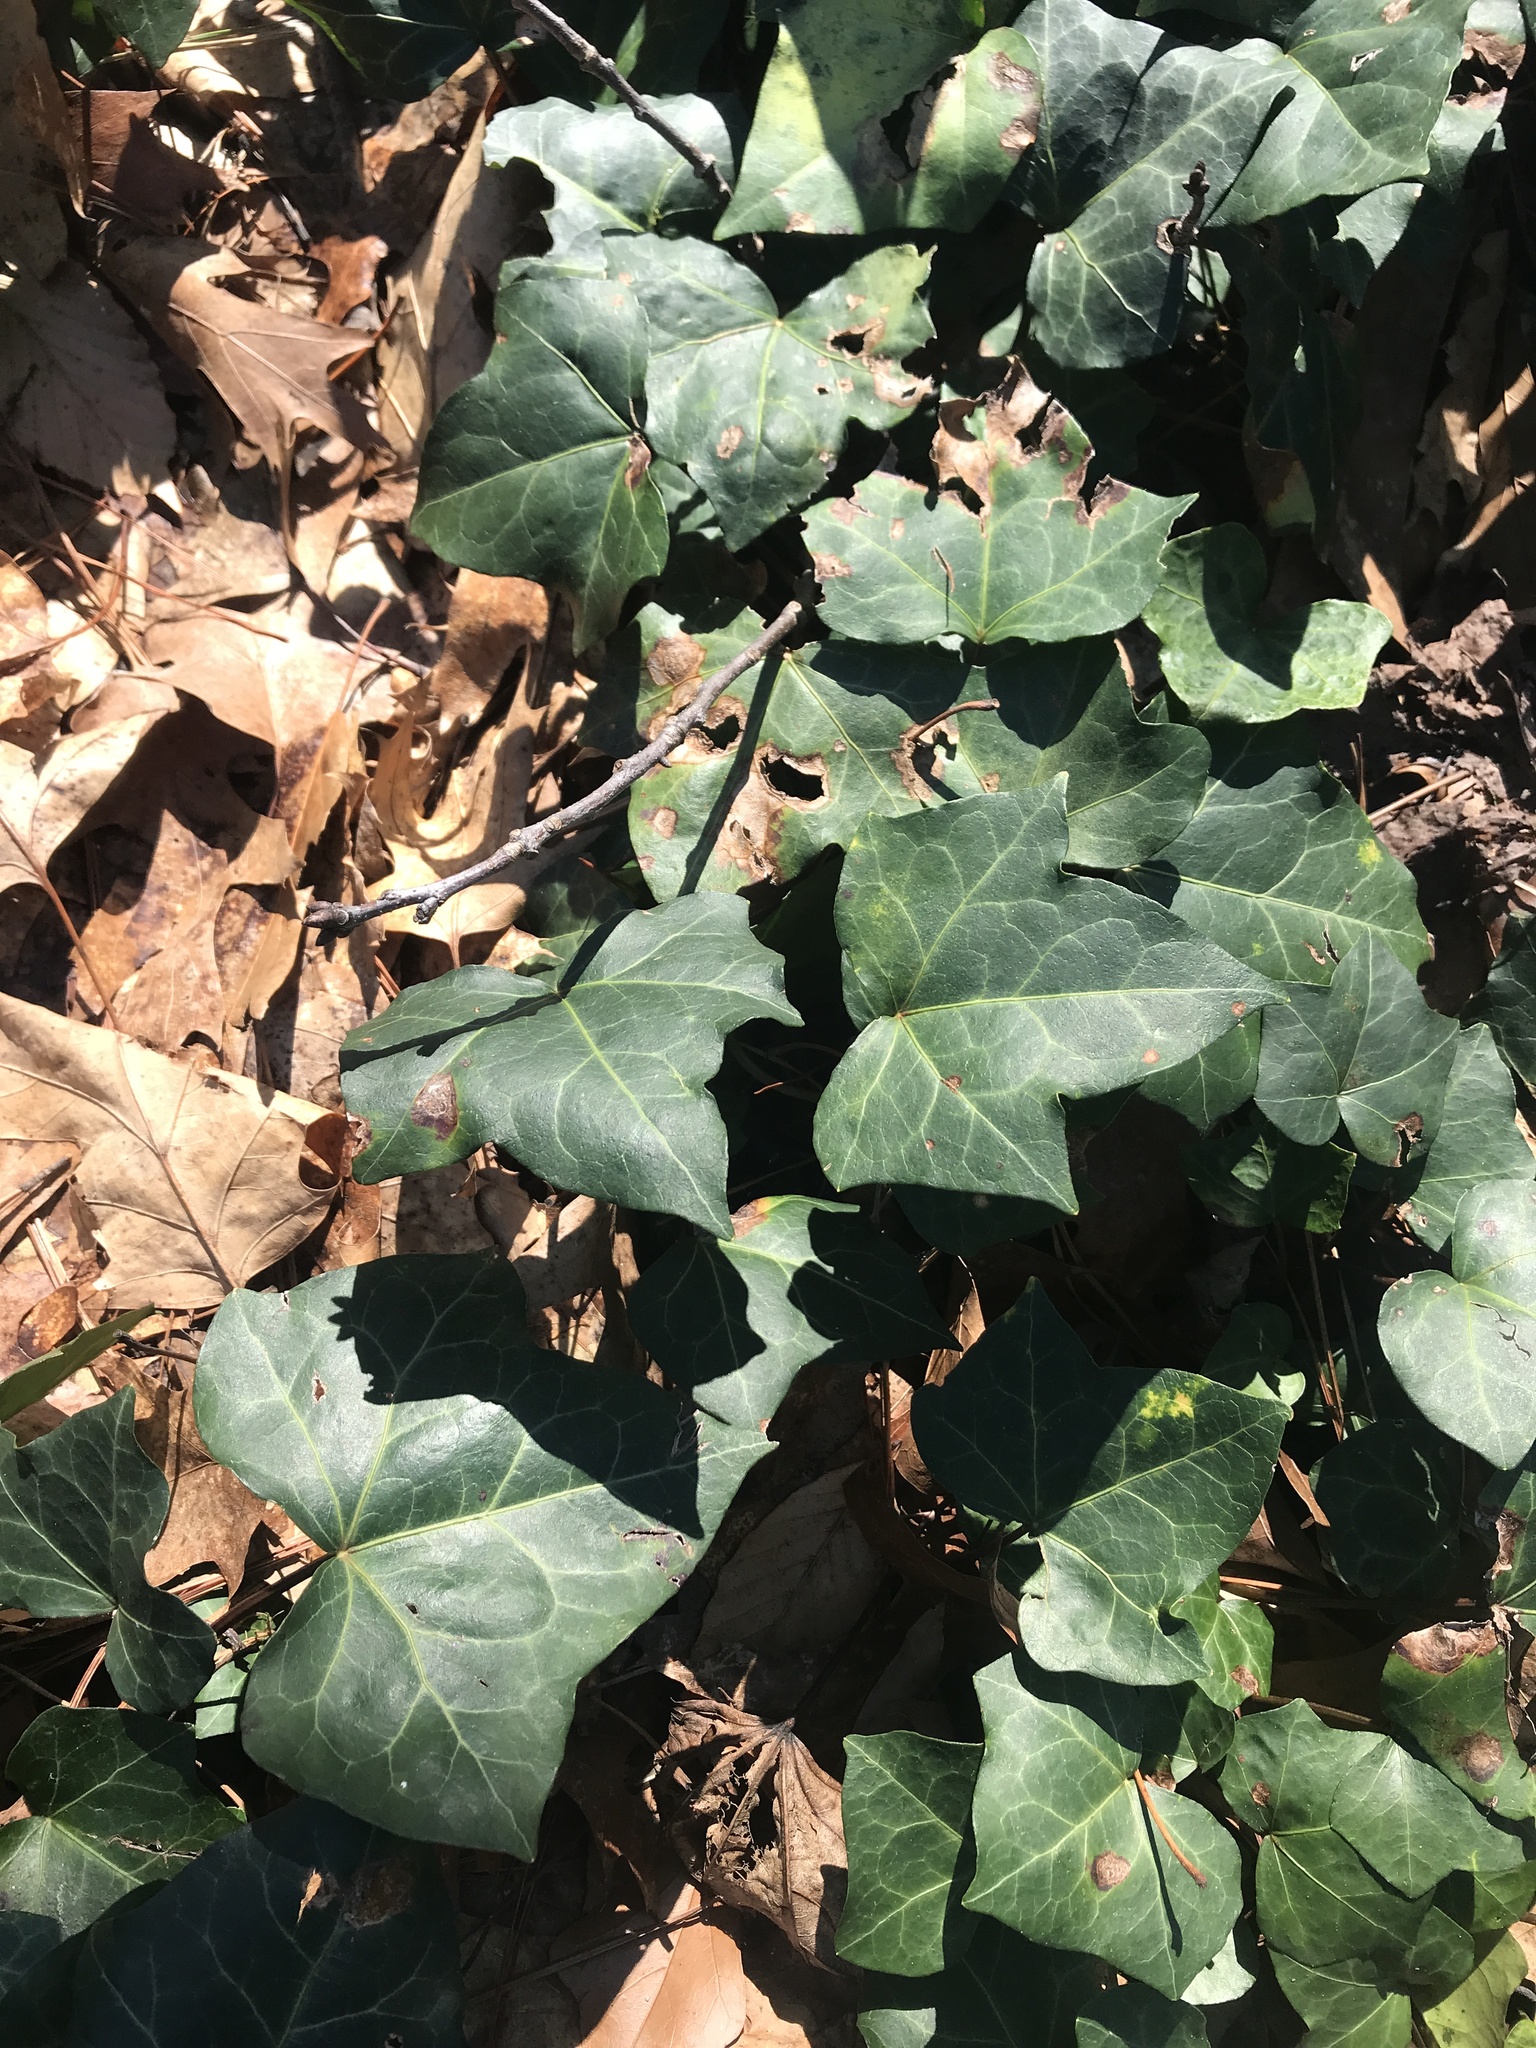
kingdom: Plantae
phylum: Tracheophyta
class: Magnoliopsida
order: Apiales
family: Araliaceae
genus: Hedera
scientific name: Hedera helix
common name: Ivy
